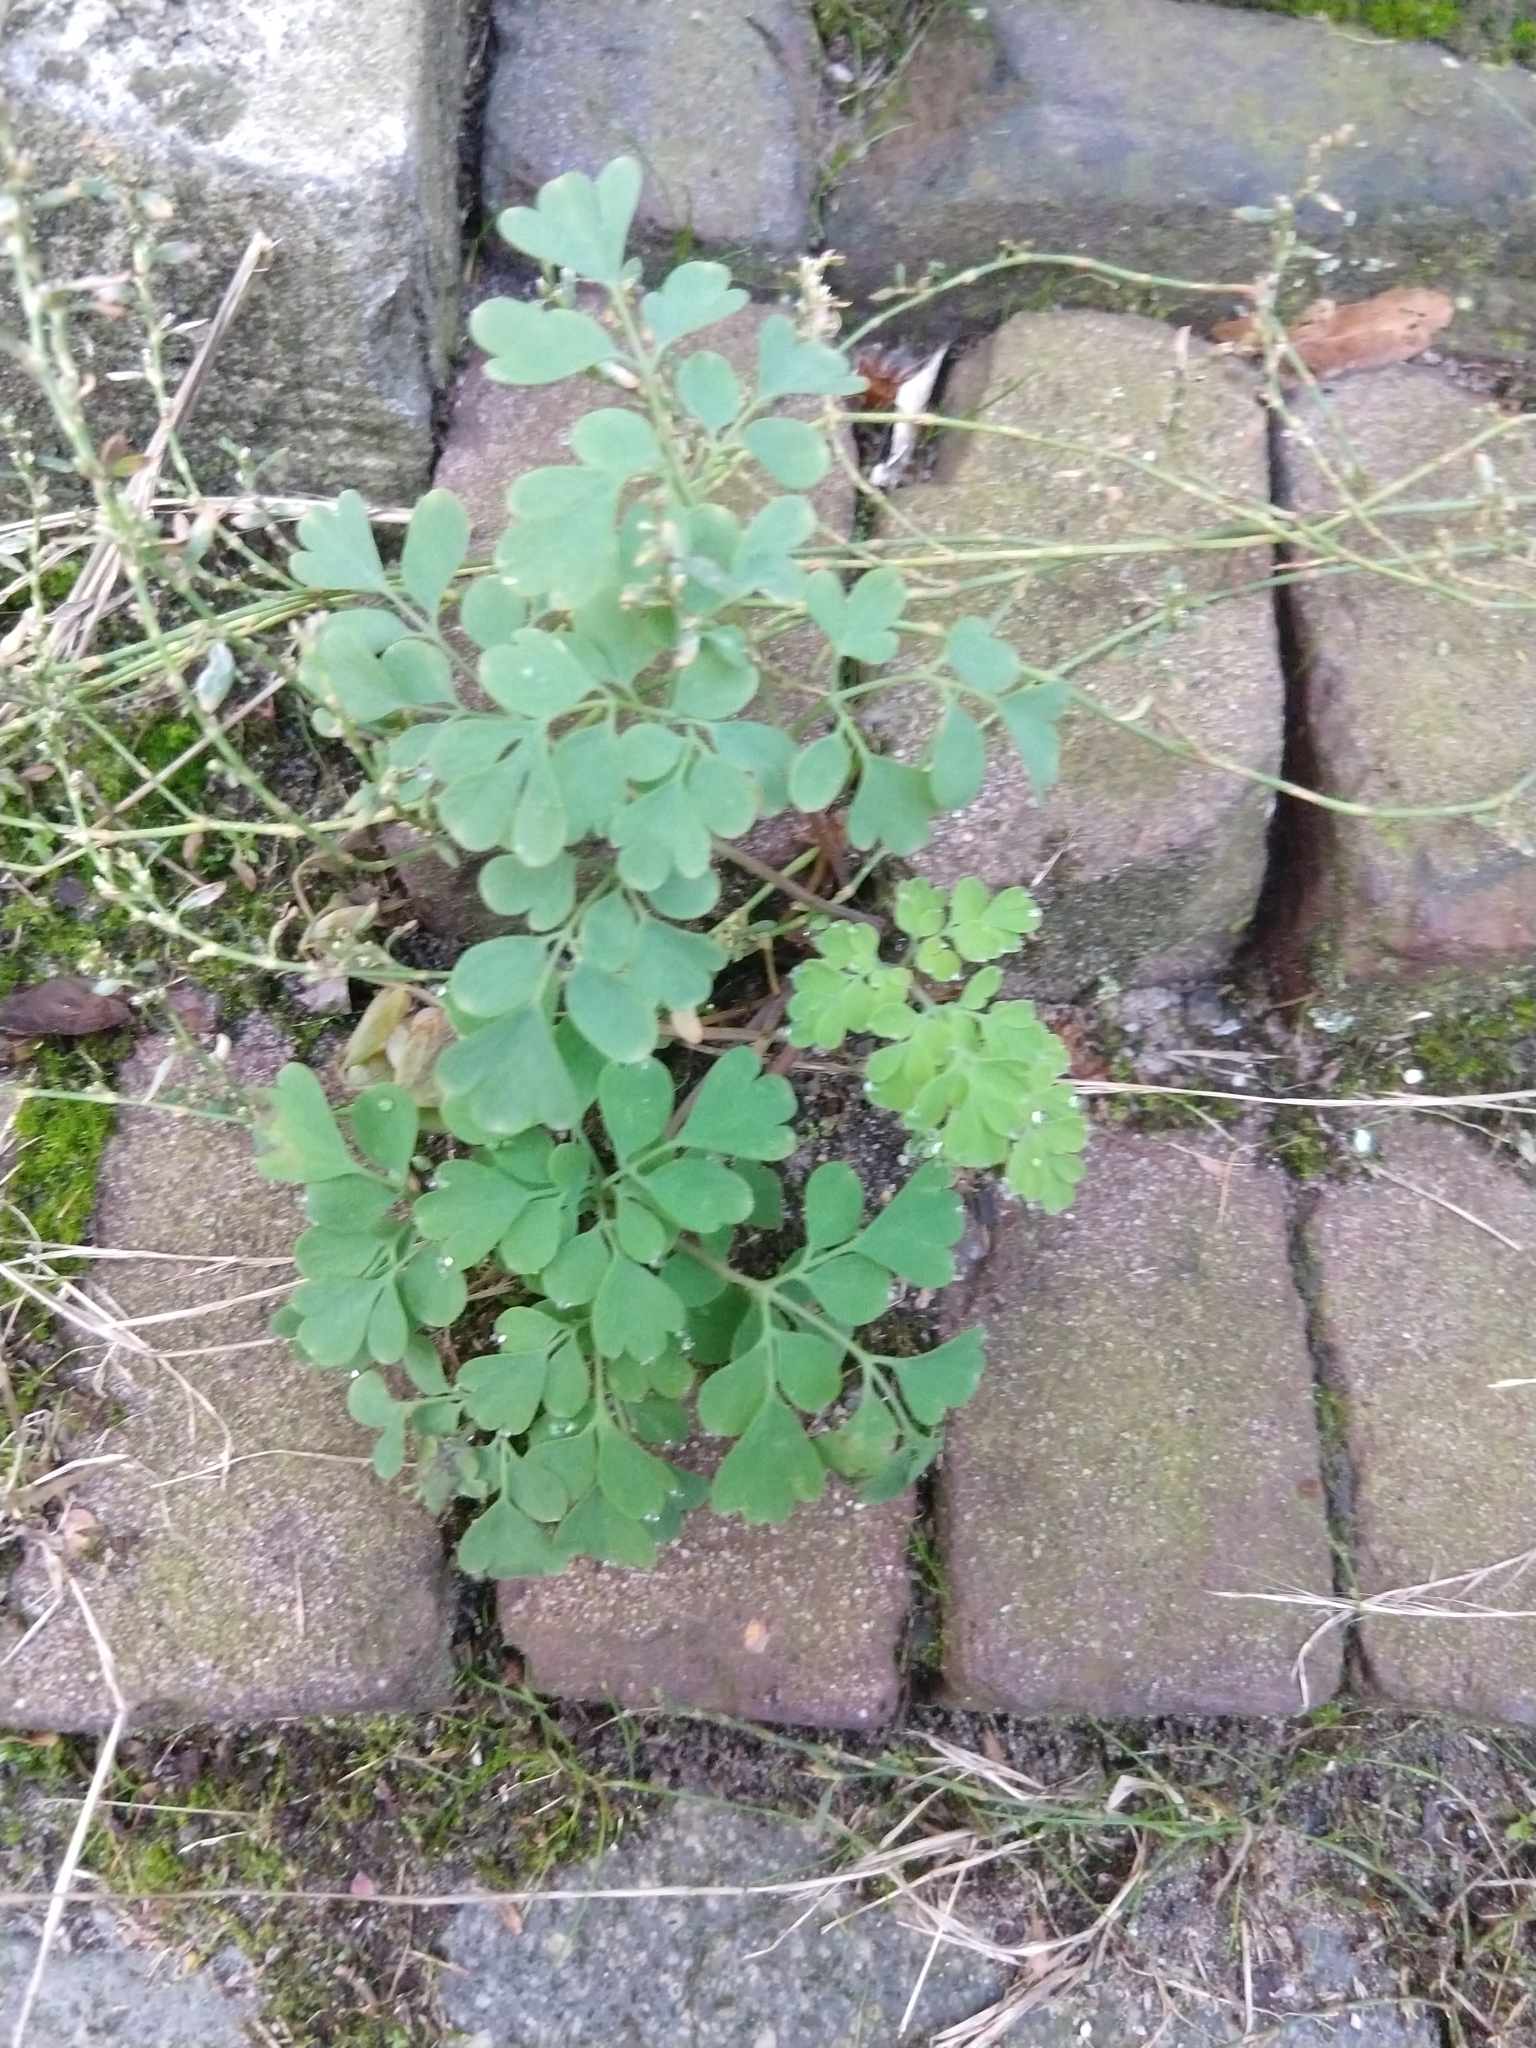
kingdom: Plantae
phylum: Tracheophyta
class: Magnoliopsida
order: Ranunculales
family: Papaveraceae
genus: Pseudofumaria
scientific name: Pseudofumaria lutea
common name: Yellow corydalis
